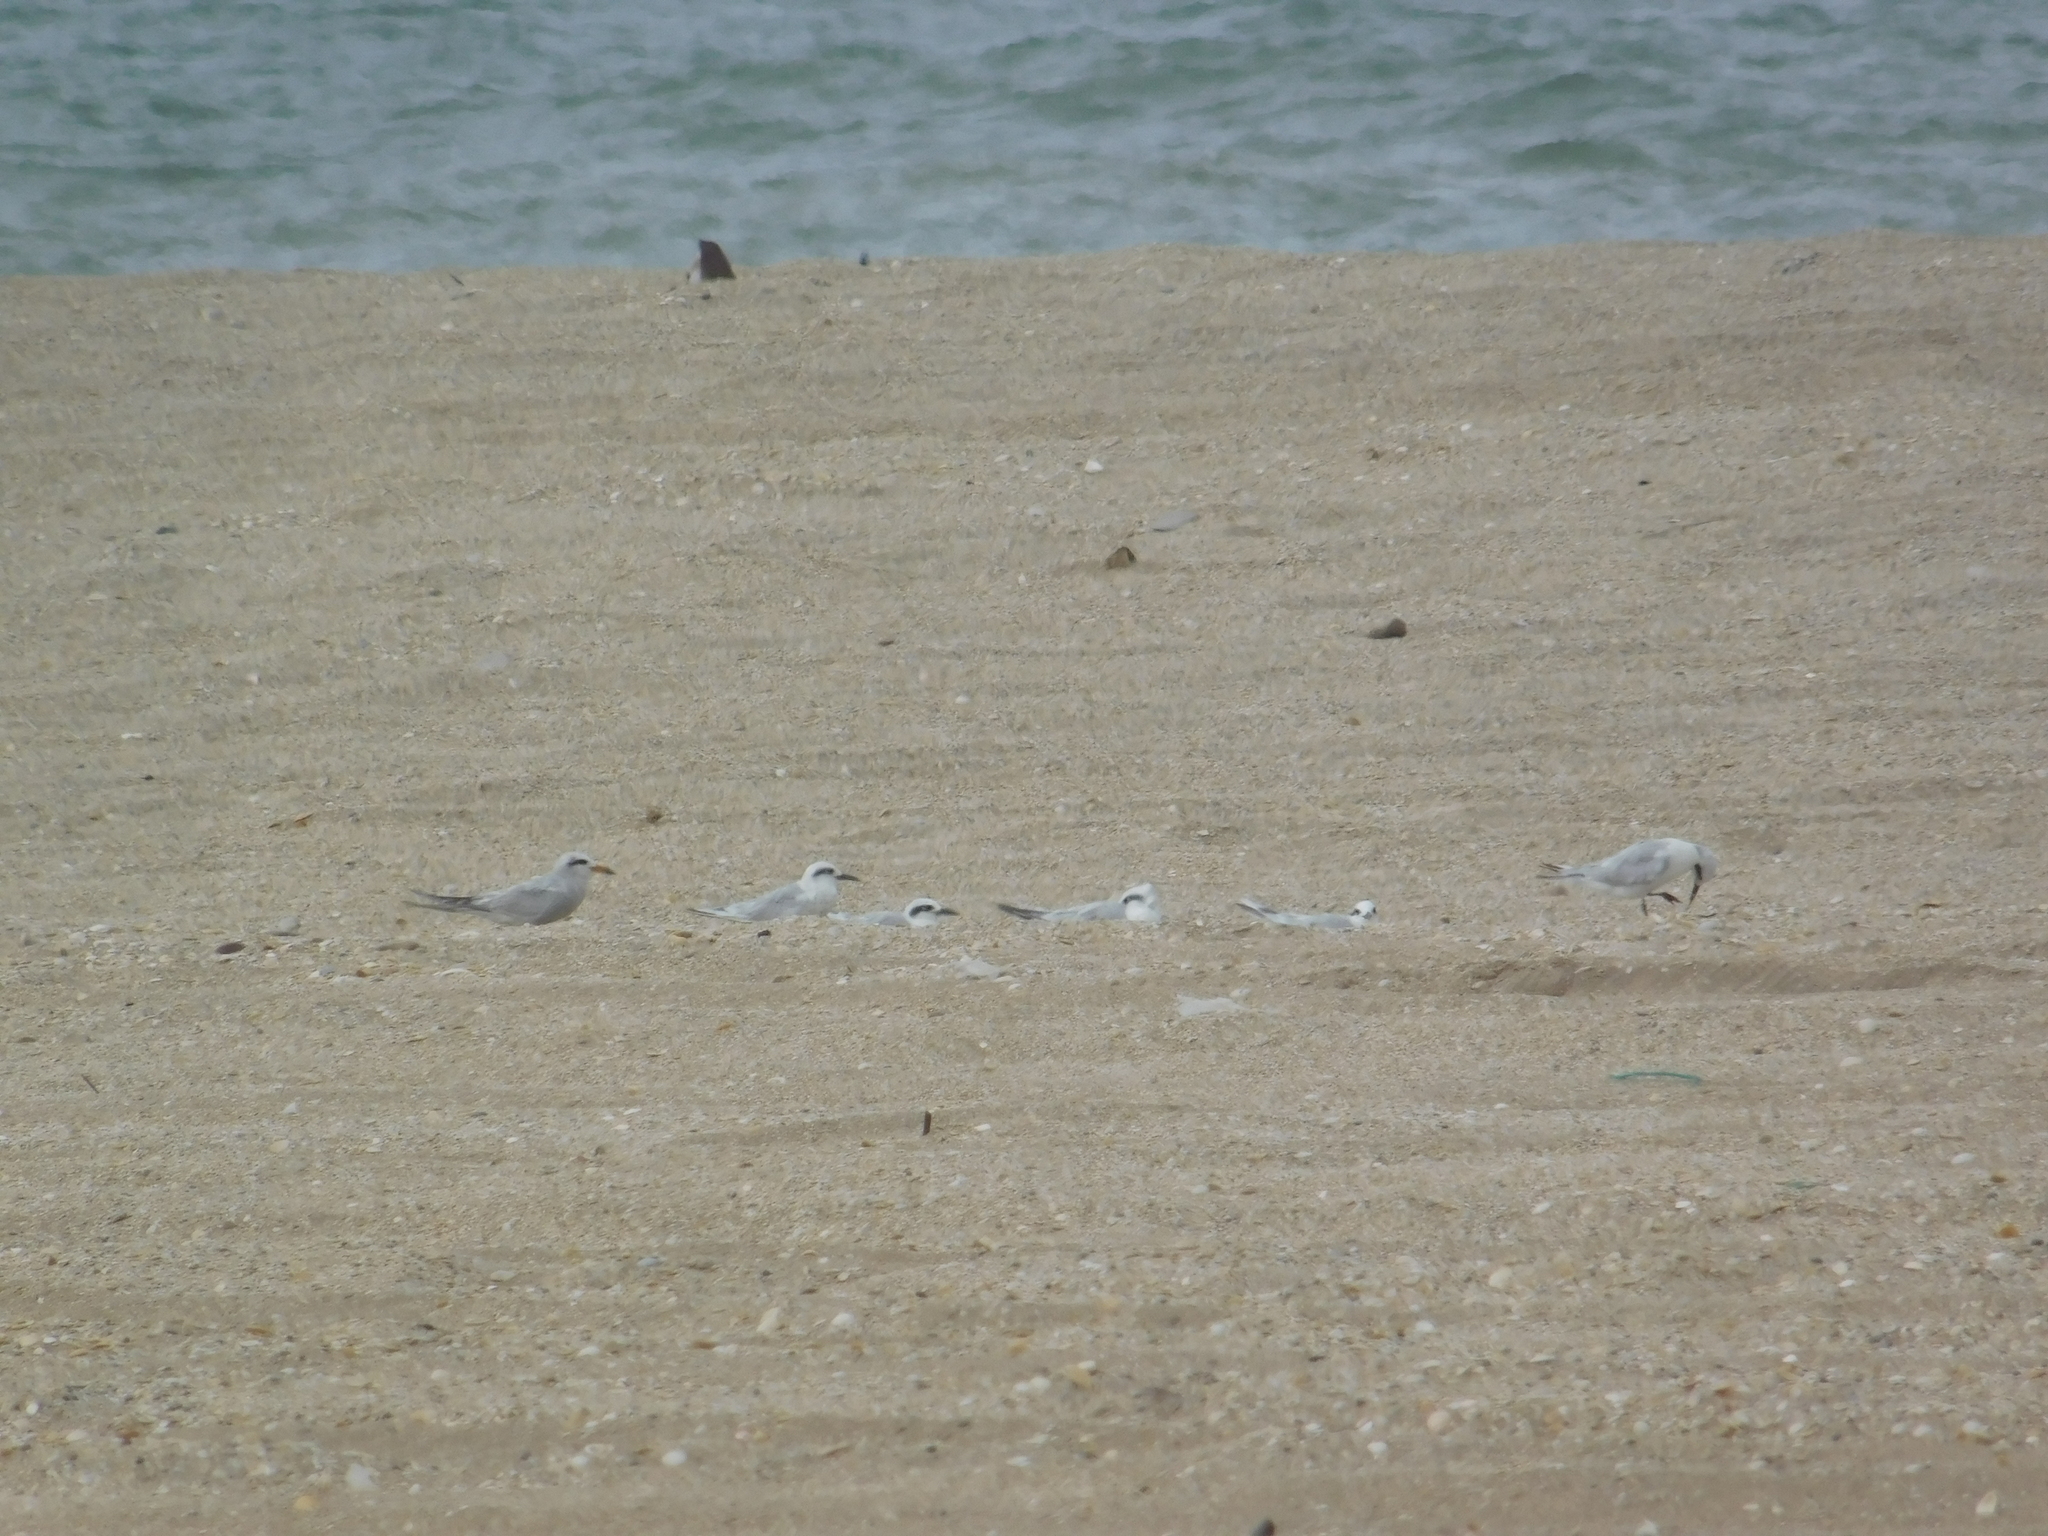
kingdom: Animalia
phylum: Chordata
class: Aves
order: Charadriiformes
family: Laridae
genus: Sterna
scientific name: Sterna trudeaui
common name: Snowy-crowned tern
